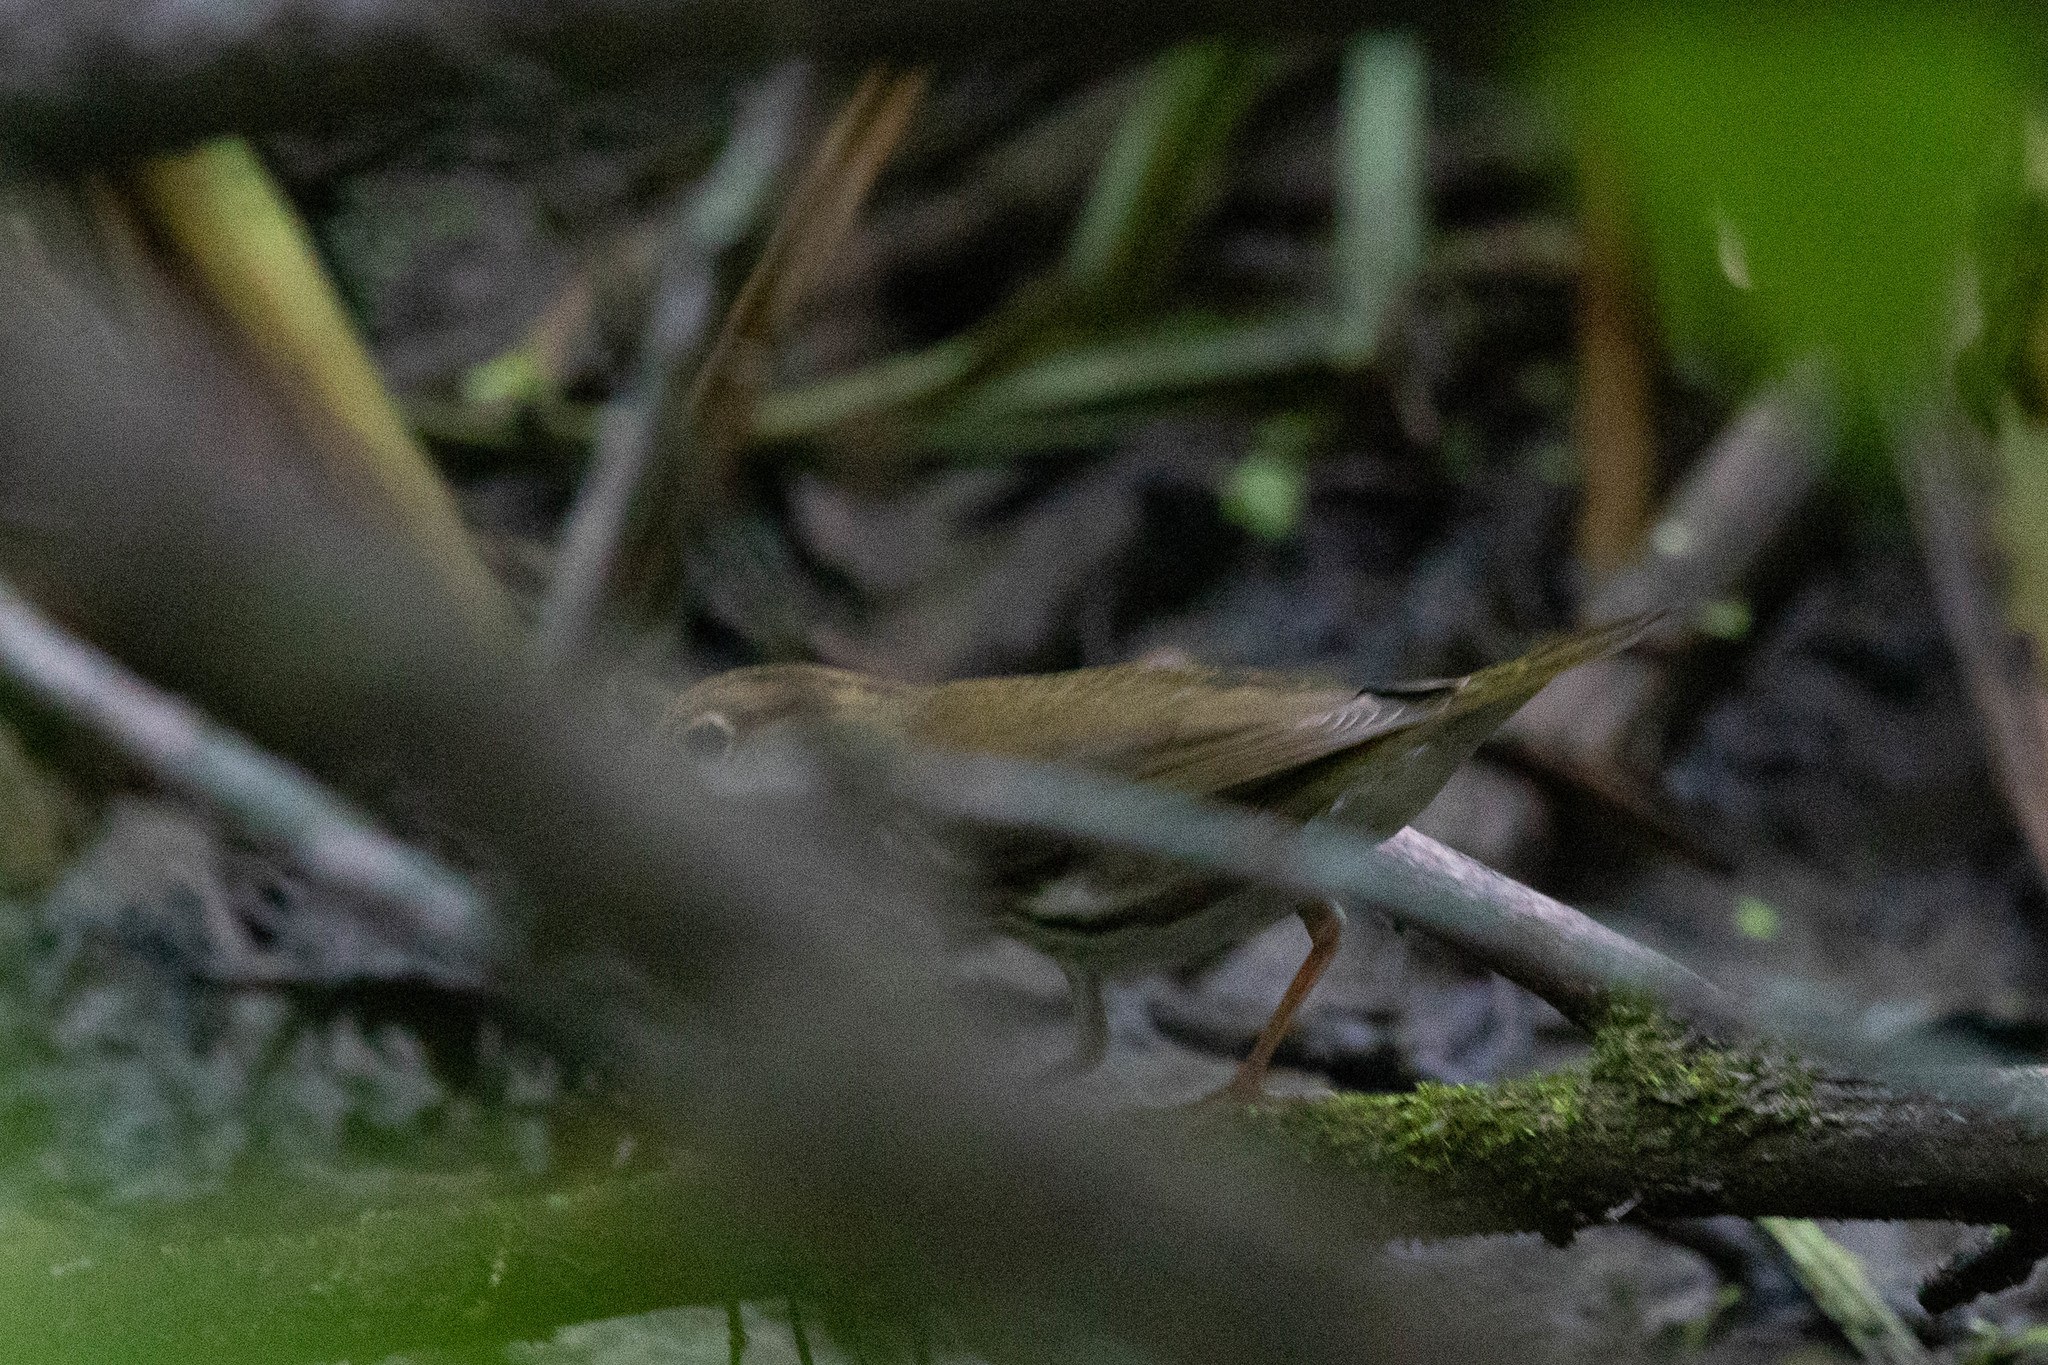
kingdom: Animalia
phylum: Chordata
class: Aves
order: Passeriformes
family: Parulidae
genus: Seiurus
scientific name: Seiurus aurocapilla
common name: Ovenbird
